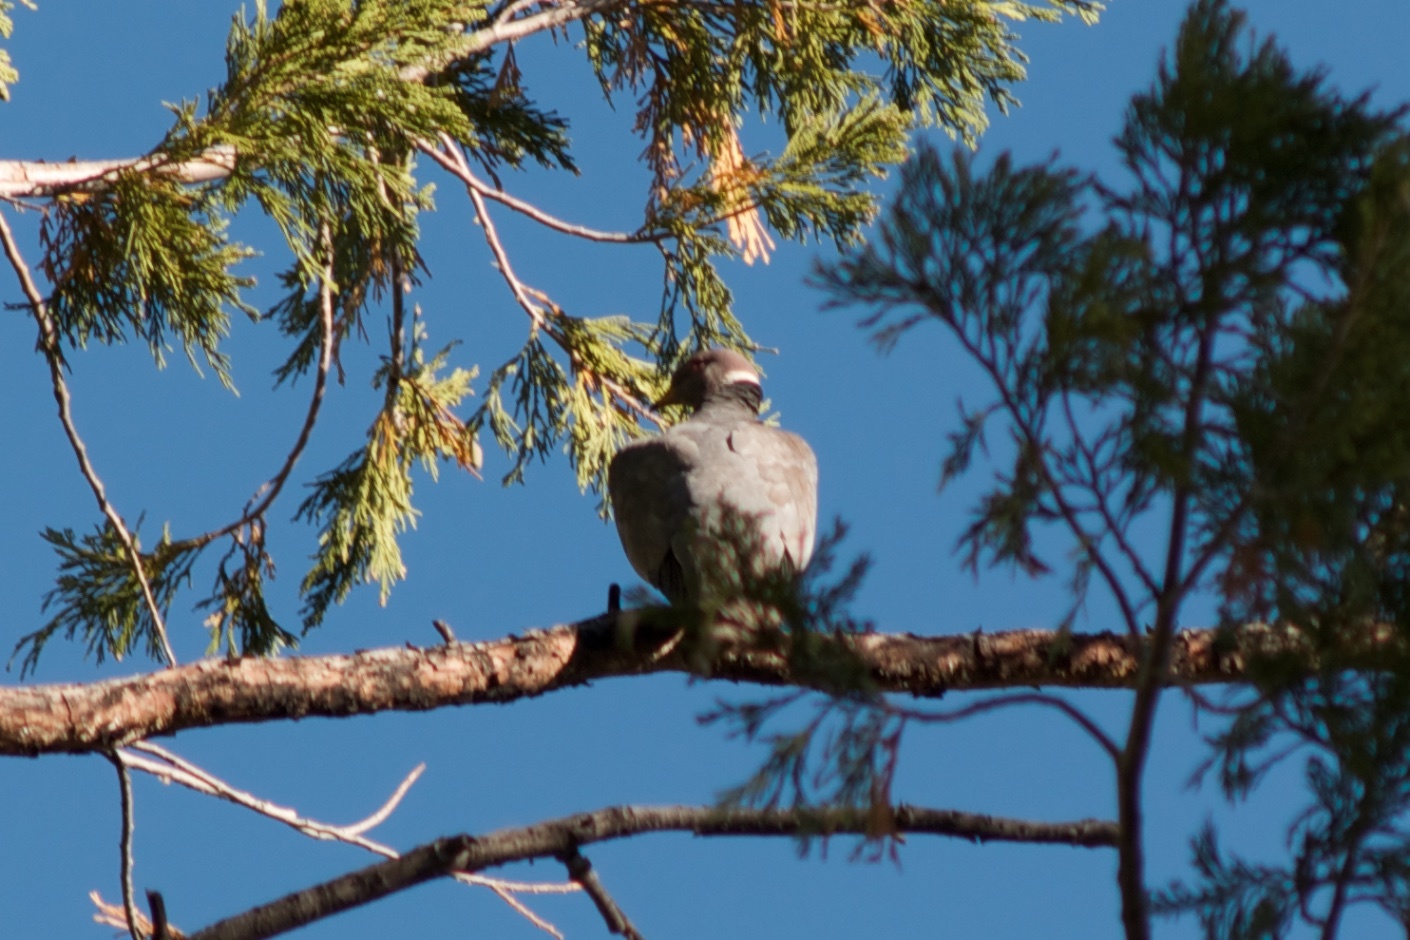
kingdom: Animalia
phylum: Chordata
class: Aves
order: Columbiformes
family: Columbidae
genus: Patagioenas
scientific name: Patagioenas fasciata
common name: Band-tailed pigeon
